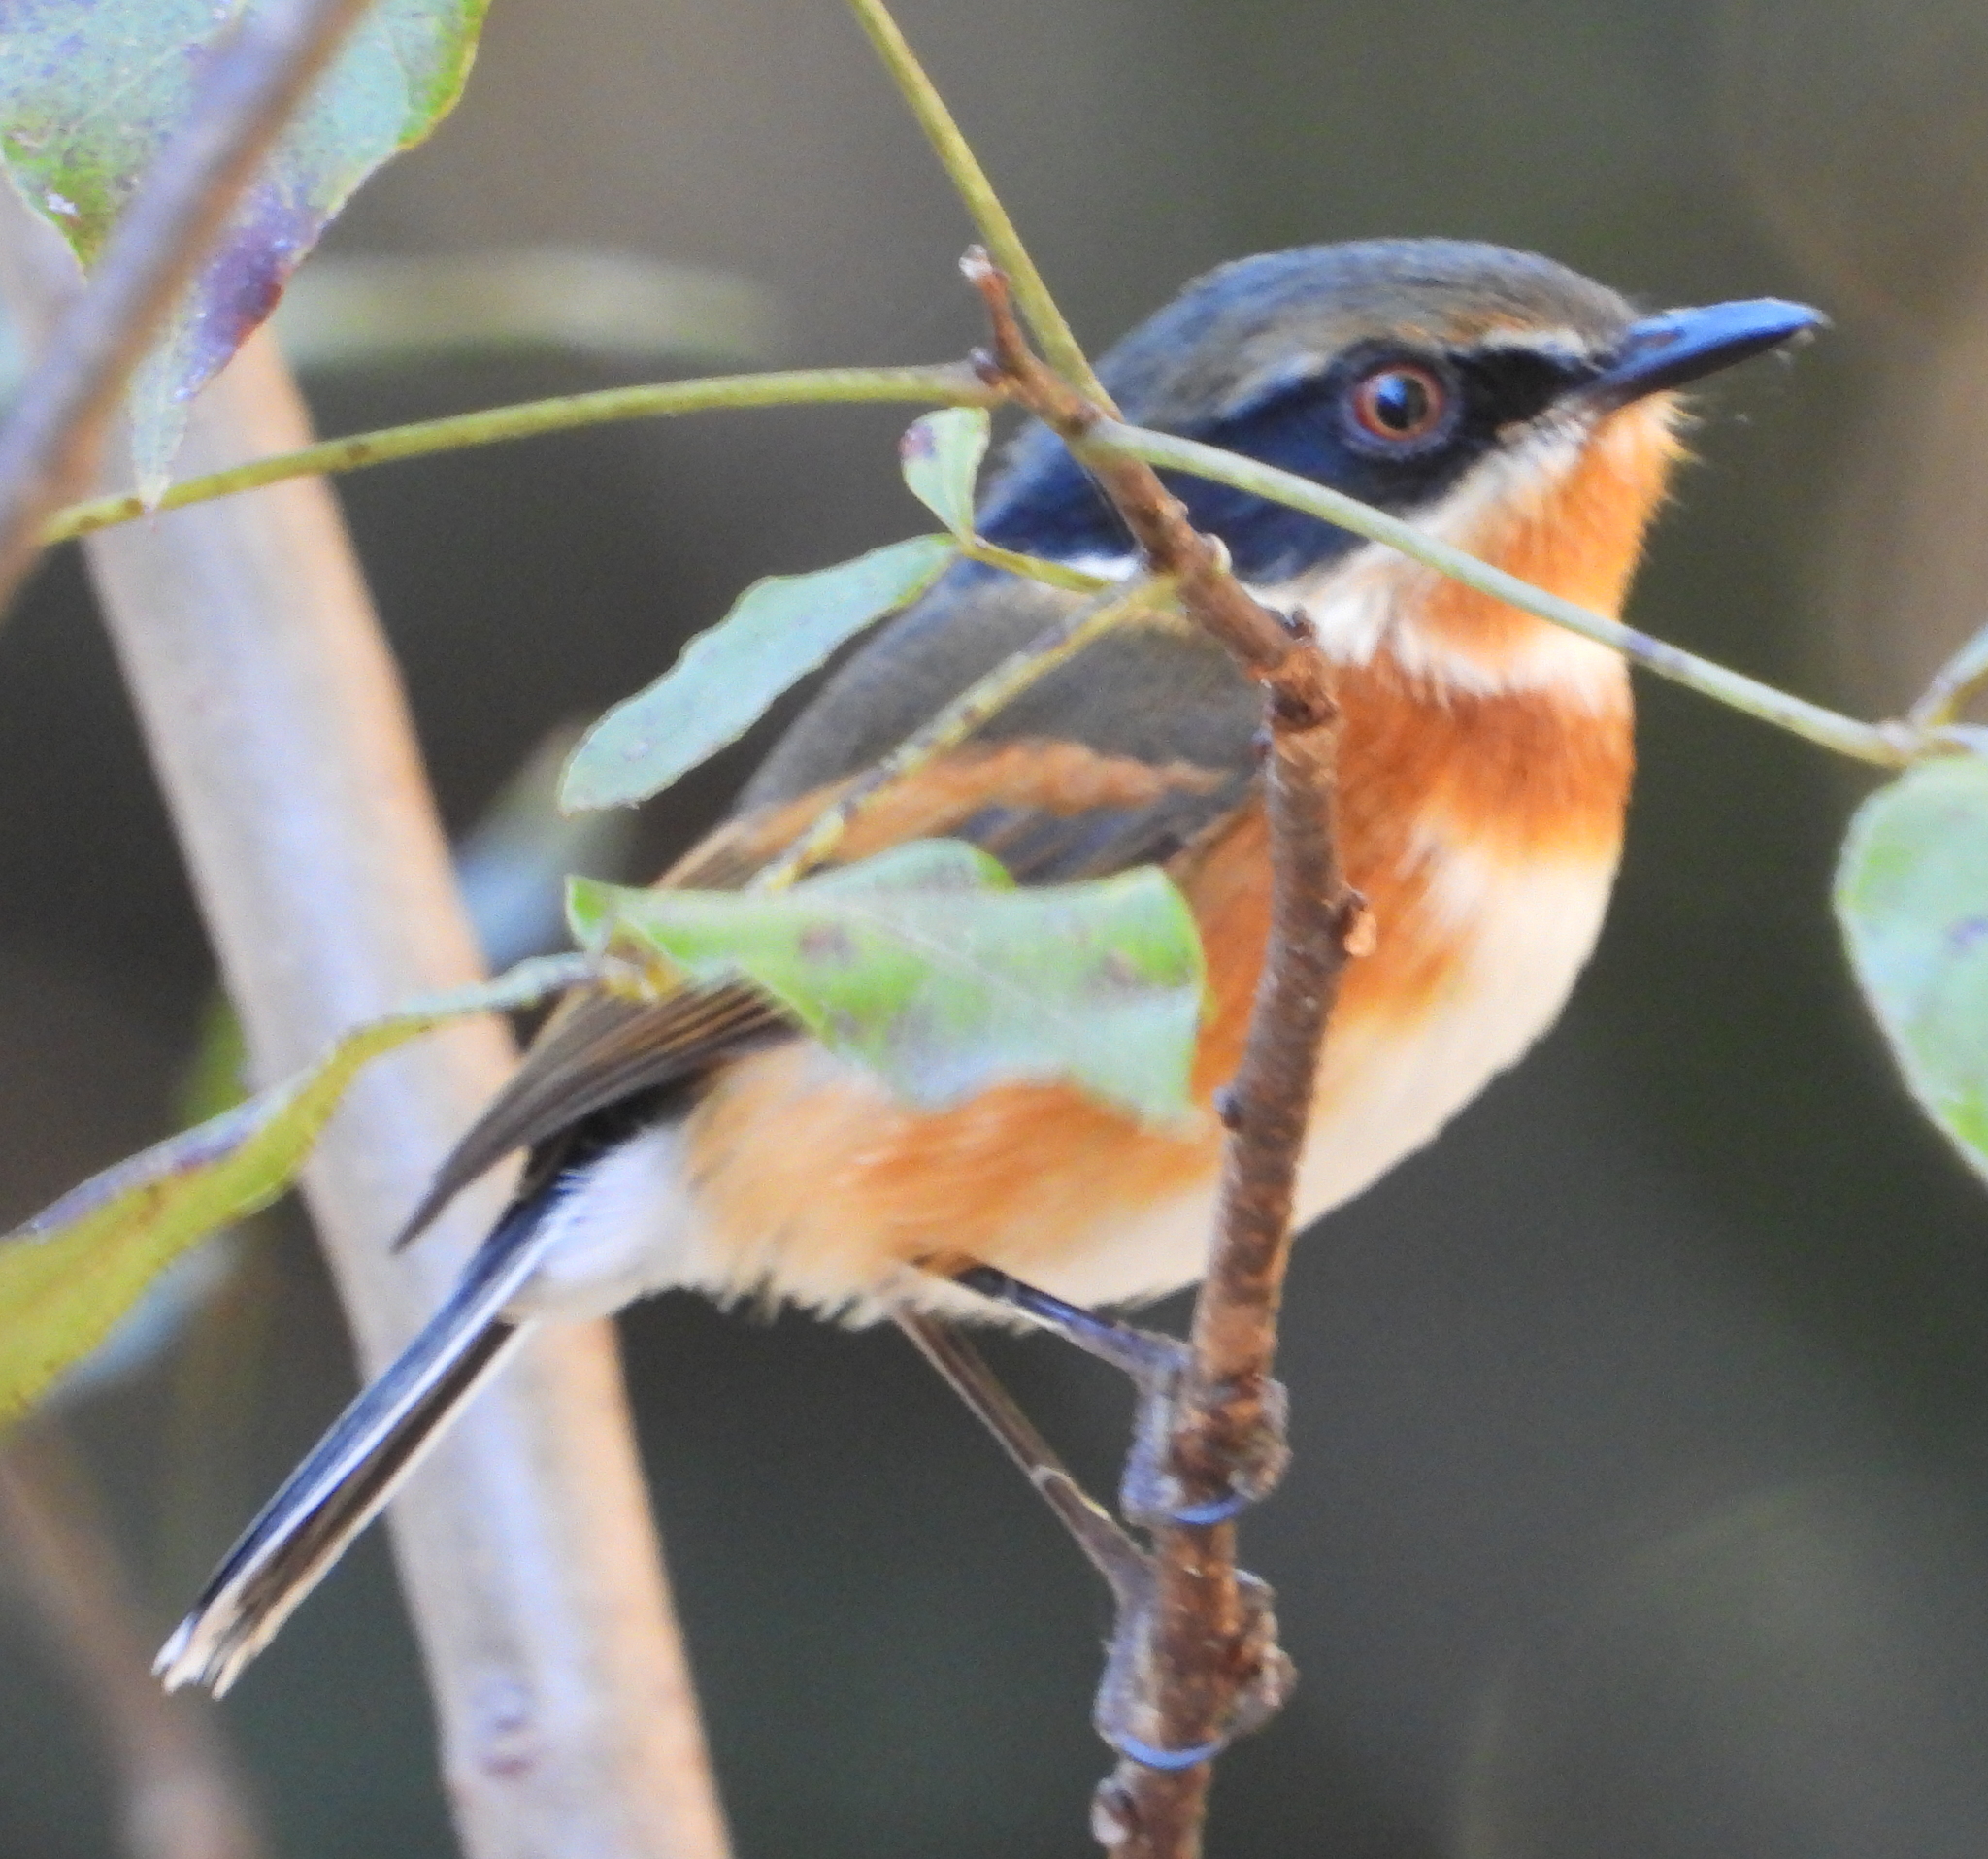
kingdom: Animalia
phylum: Chordata
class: Aves
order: Passeriformes
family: Platysteiridae
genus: Batis
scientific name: Batis capensis
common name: Cape batis
